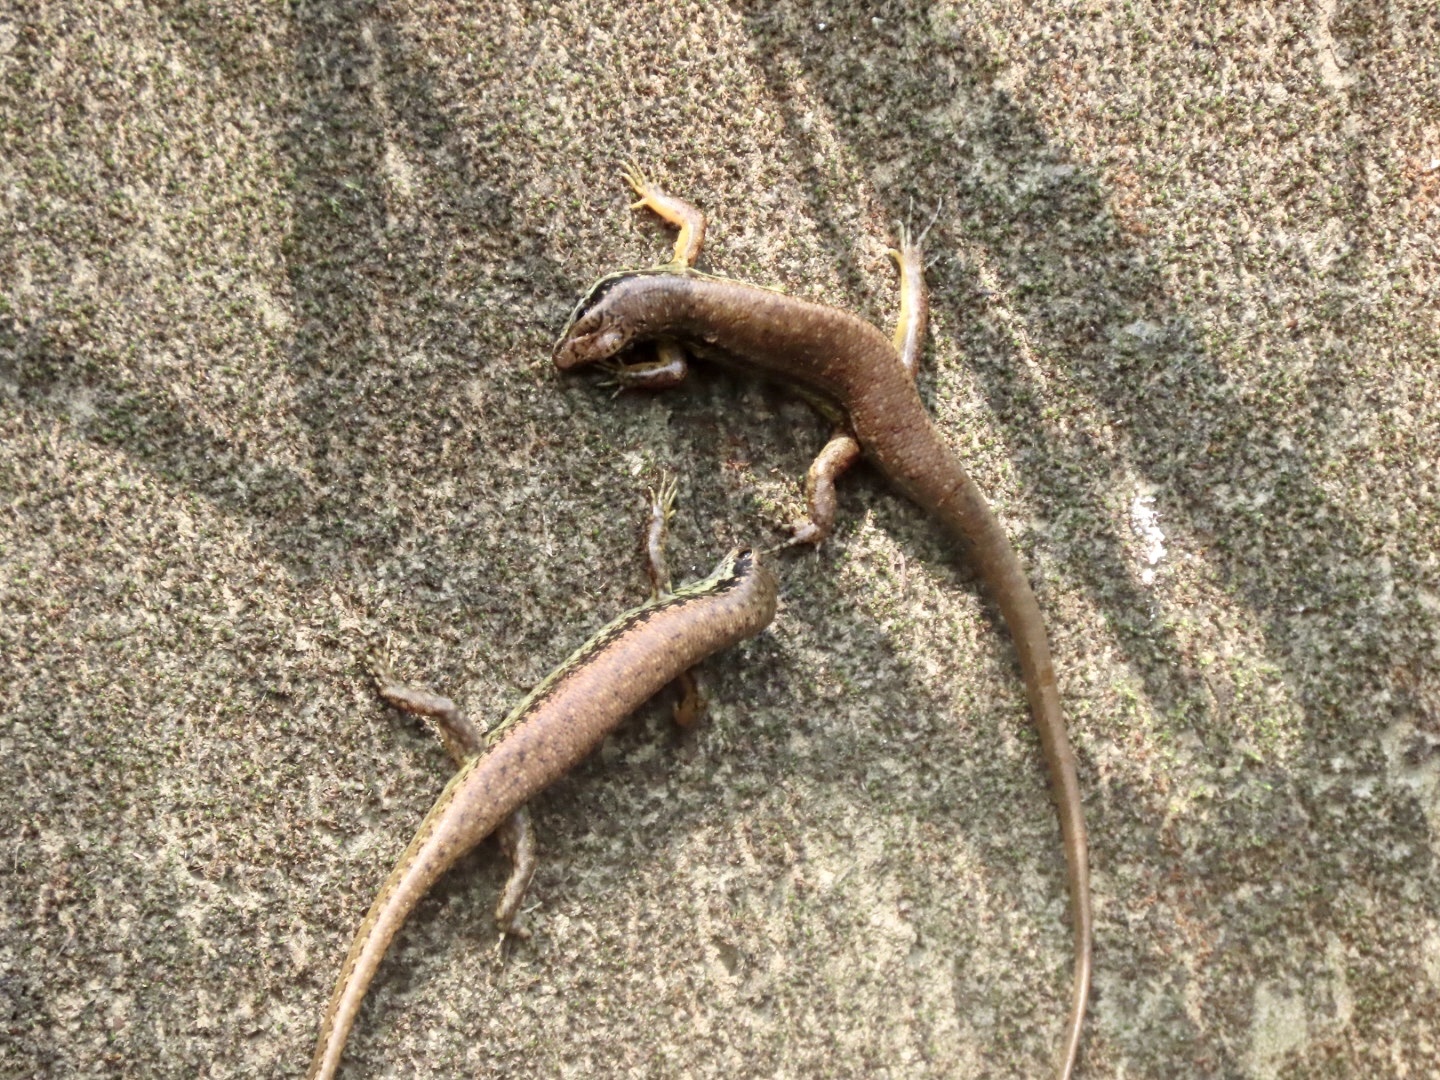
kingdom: Animalia
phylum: Chordata
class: Squamata
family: Scincidae
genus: Sphenomorphus
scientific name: Sphenomorphus incognitus
